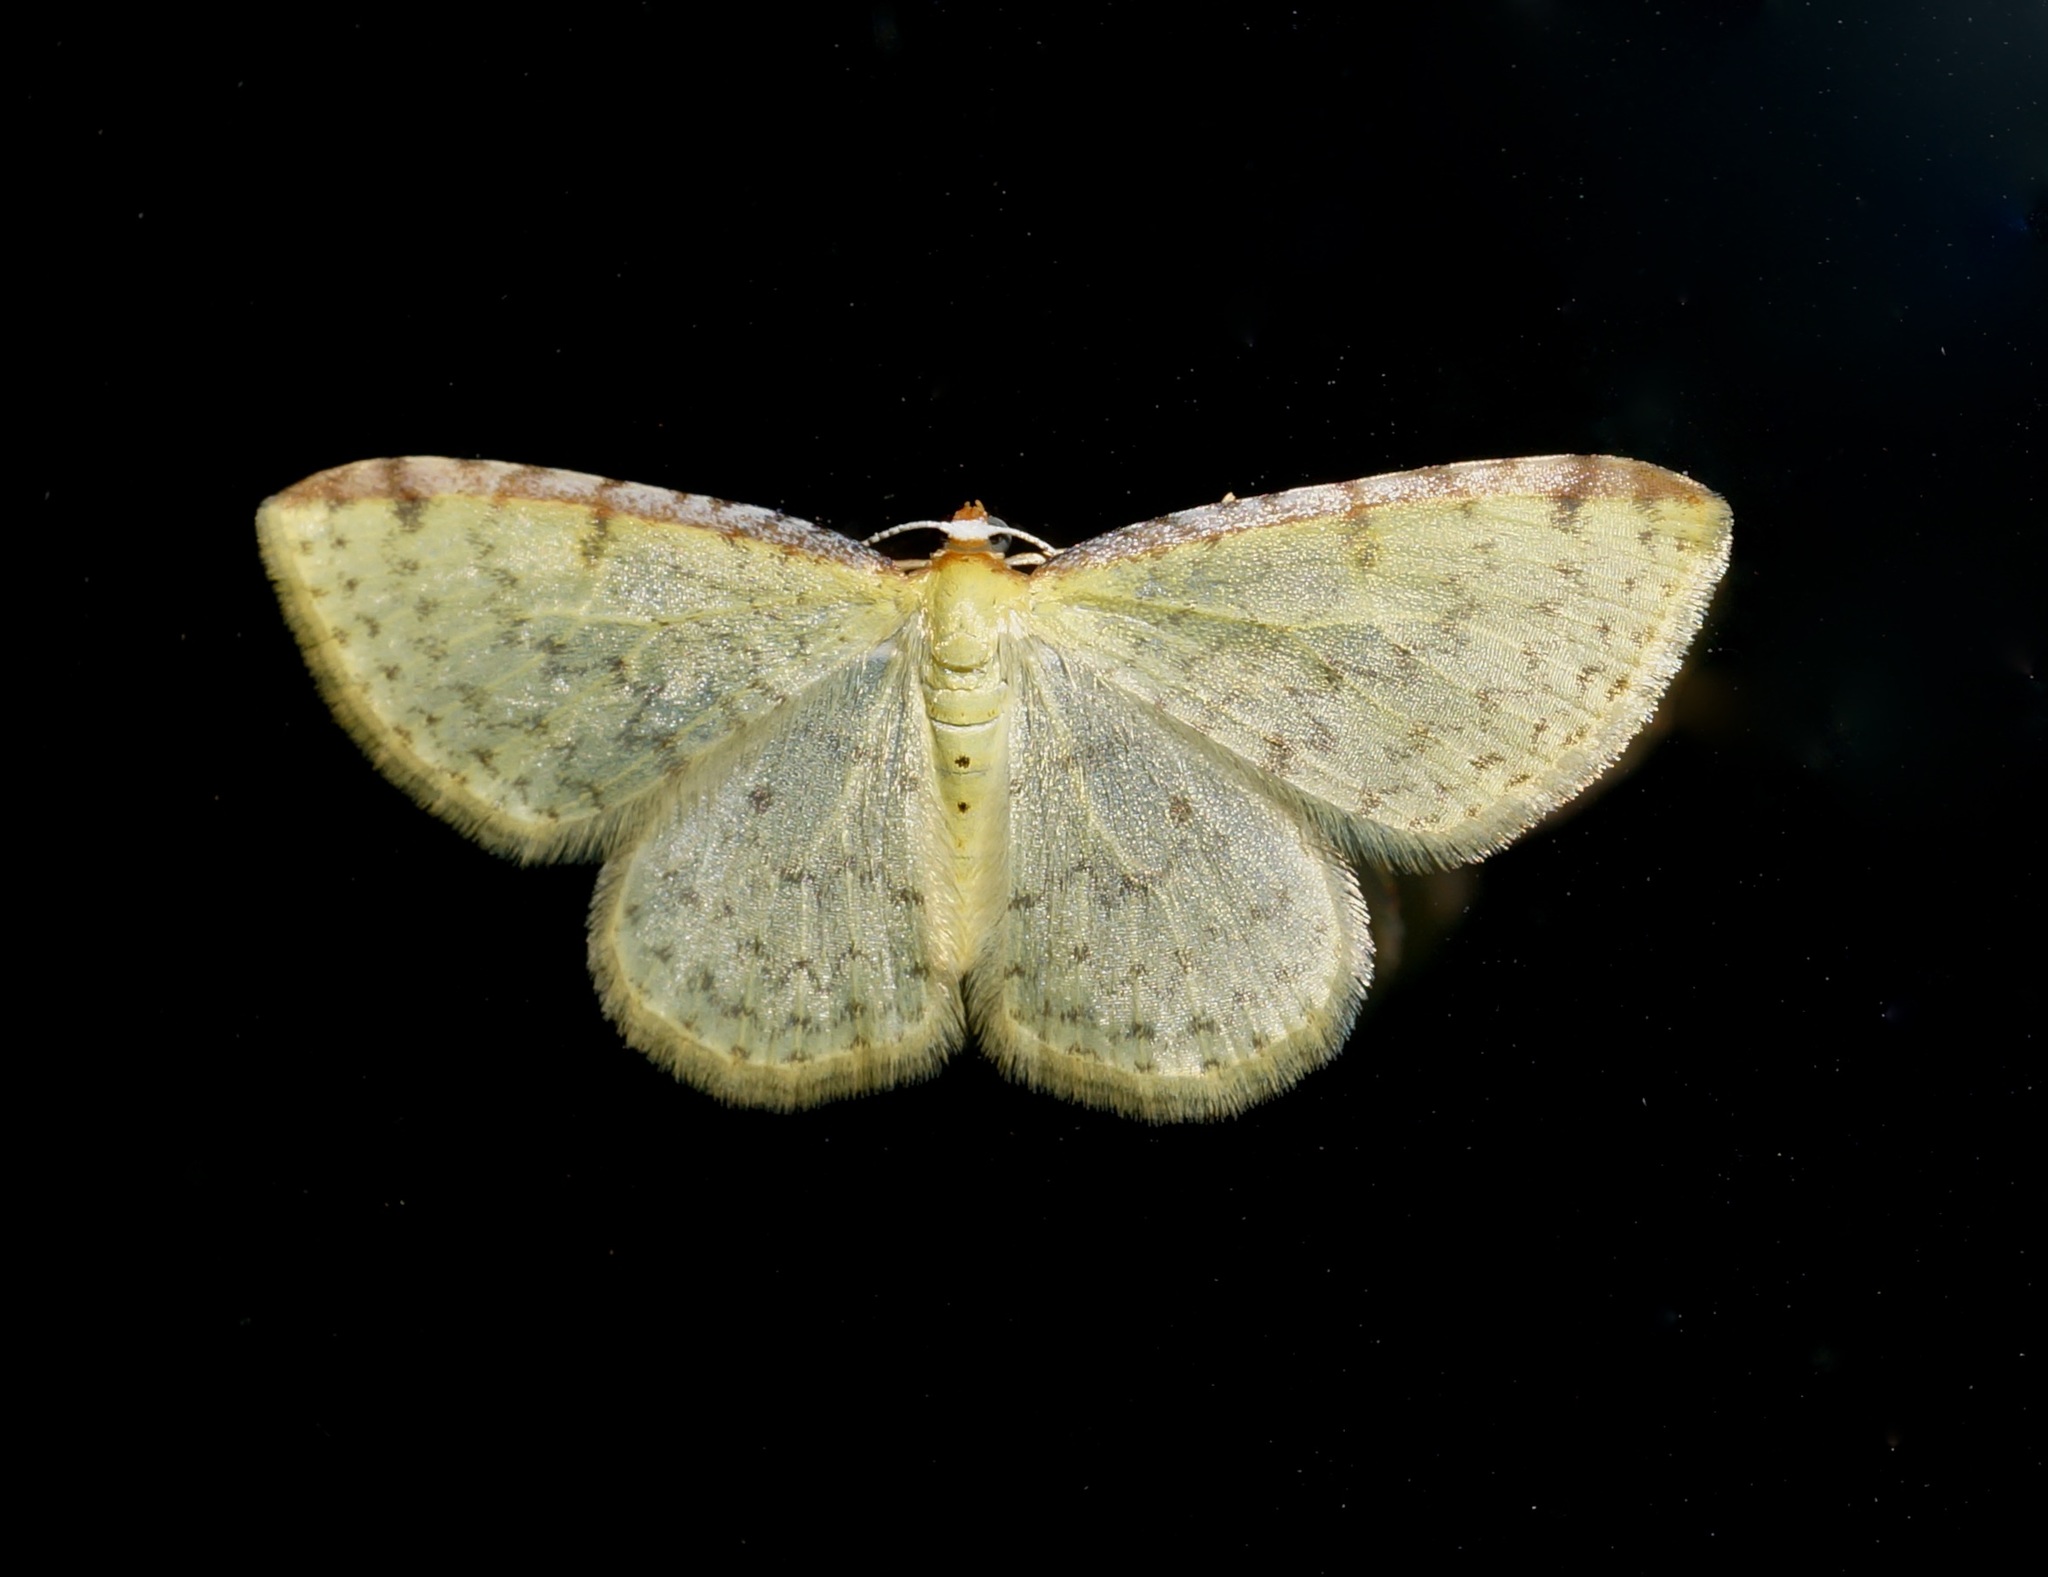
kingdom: Animalia
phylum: Arthropoda
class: Insecta
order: Lepidoptera
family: Geometridae
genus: Epiphryne
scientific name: Epiphryne undosata
